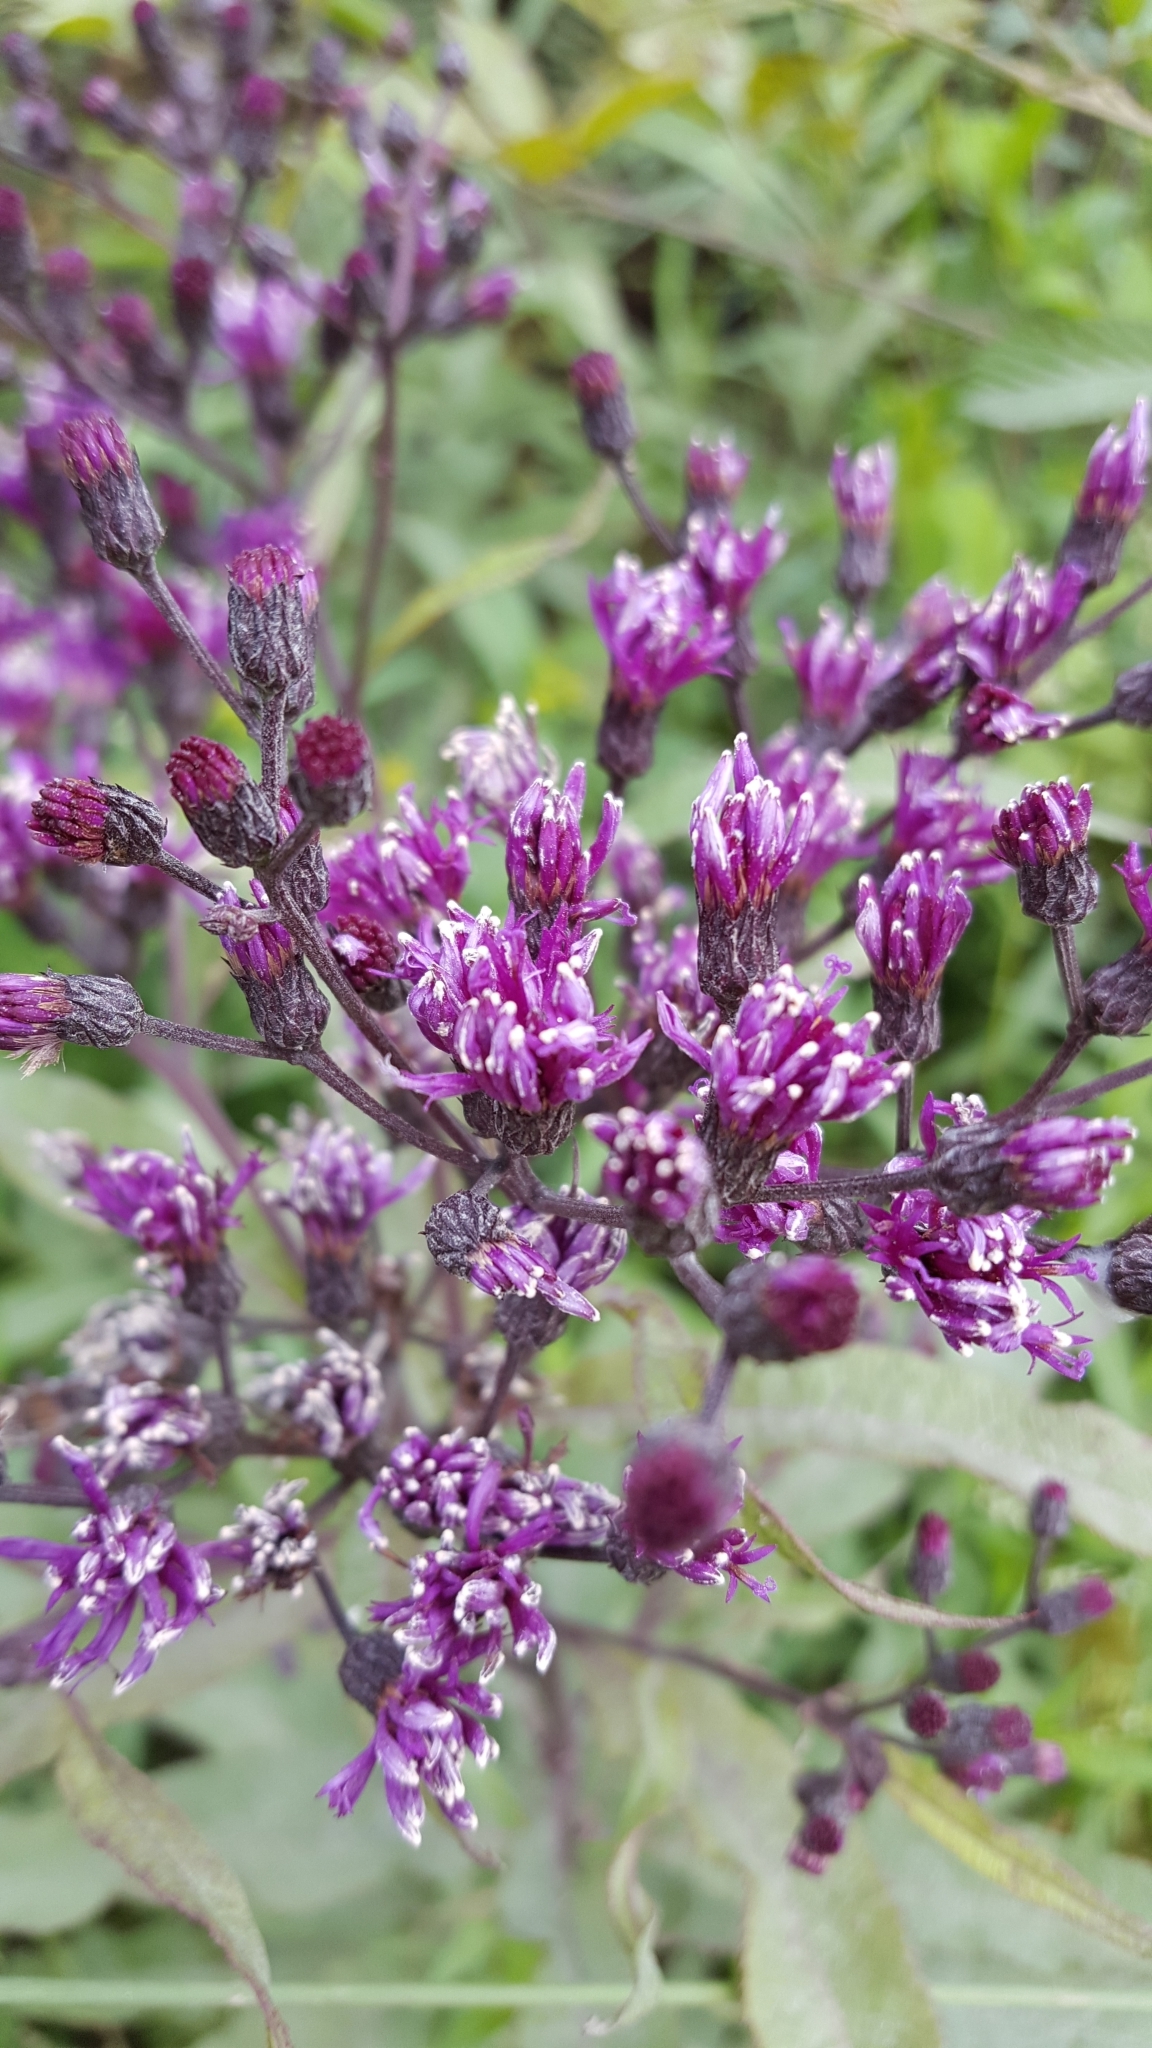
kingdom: Plantae
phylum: Tracheophyta
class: Magnoliopsida
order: Asterales
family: Asteraceae
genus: Vernonia
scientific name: Vernonia gigantea
